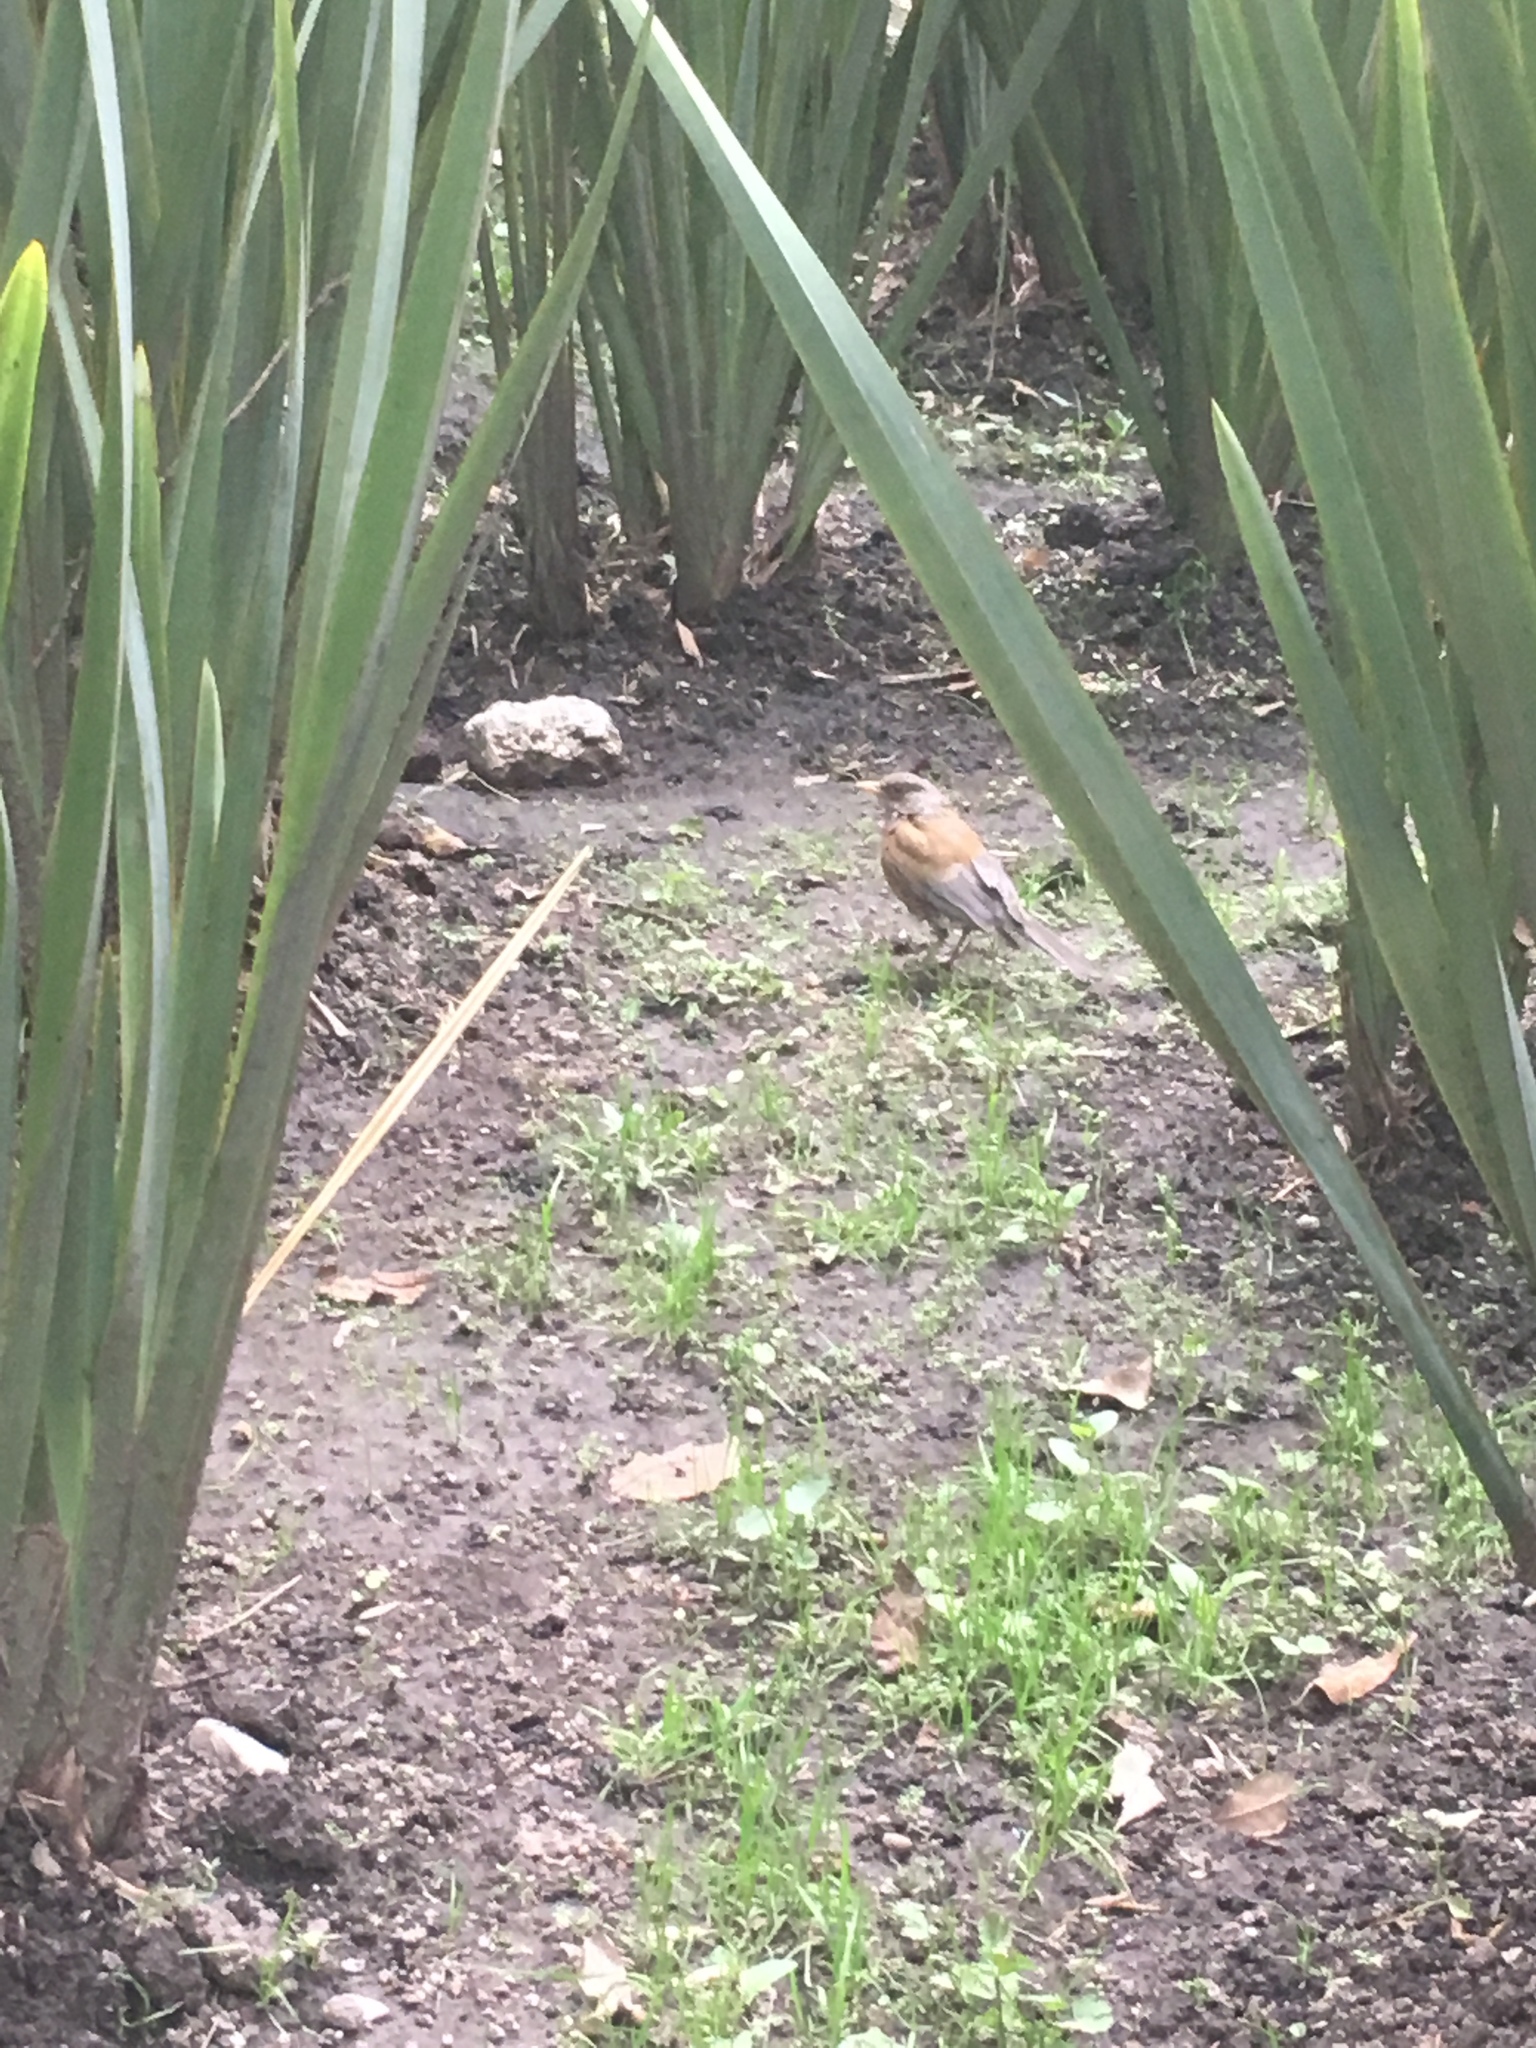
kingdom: Animalia
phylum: Chordata
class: Aves
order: Passeriformes
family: Turdidae
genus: Turdus
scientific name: Turdus rufopalliatus
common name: Rufous-backed robin
